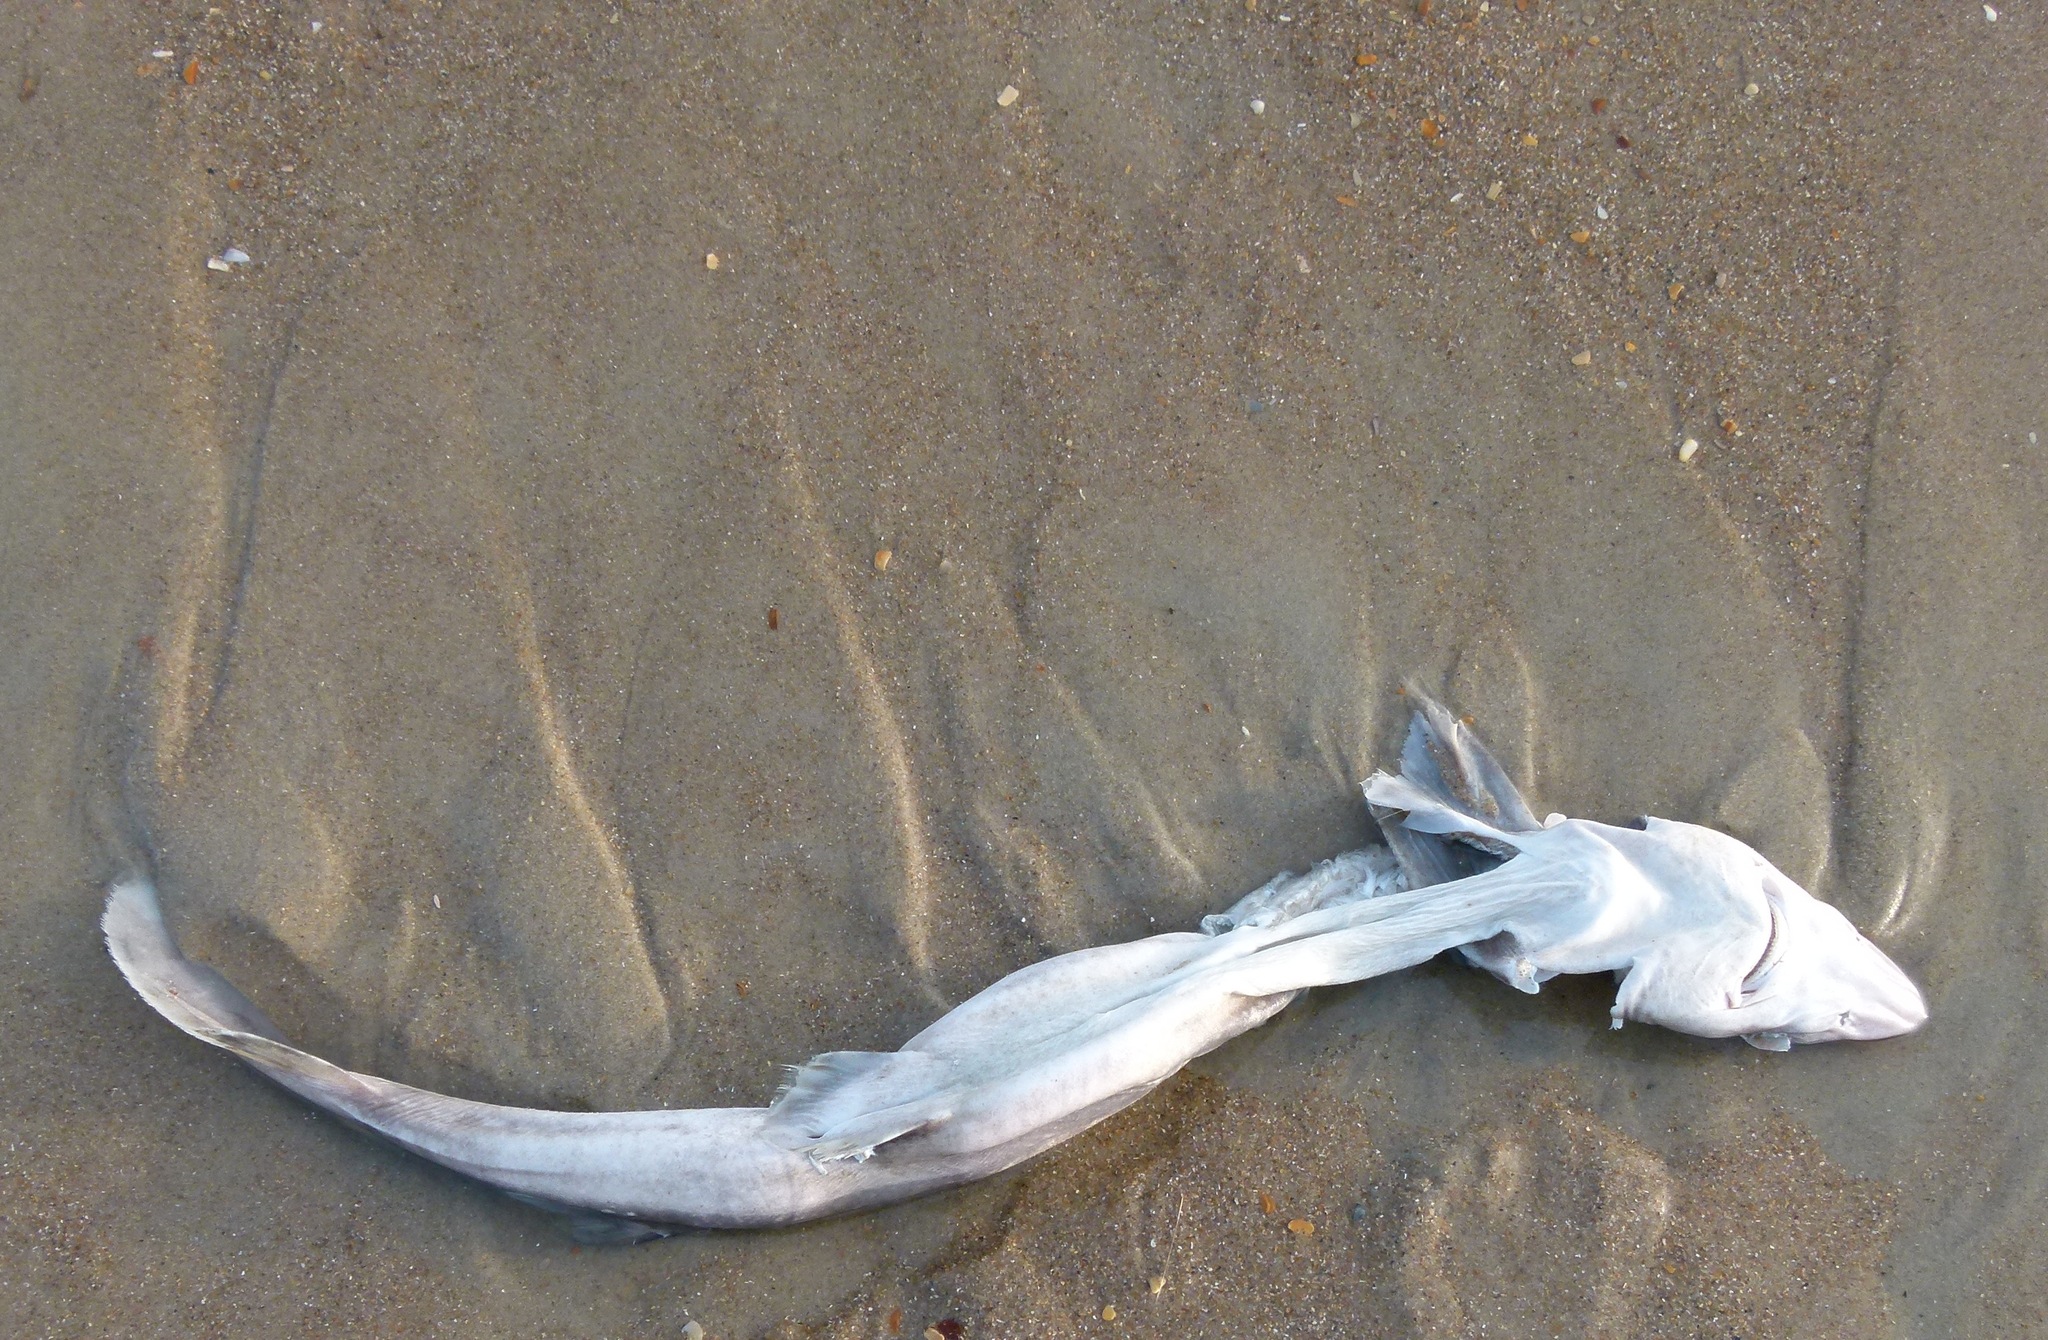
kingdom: Animalia
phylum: Chordata
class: Elasmobranchii
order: Squaliformes
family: Squalidae
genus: Squalus
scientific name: Squalus acanthias
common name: Spurdog
